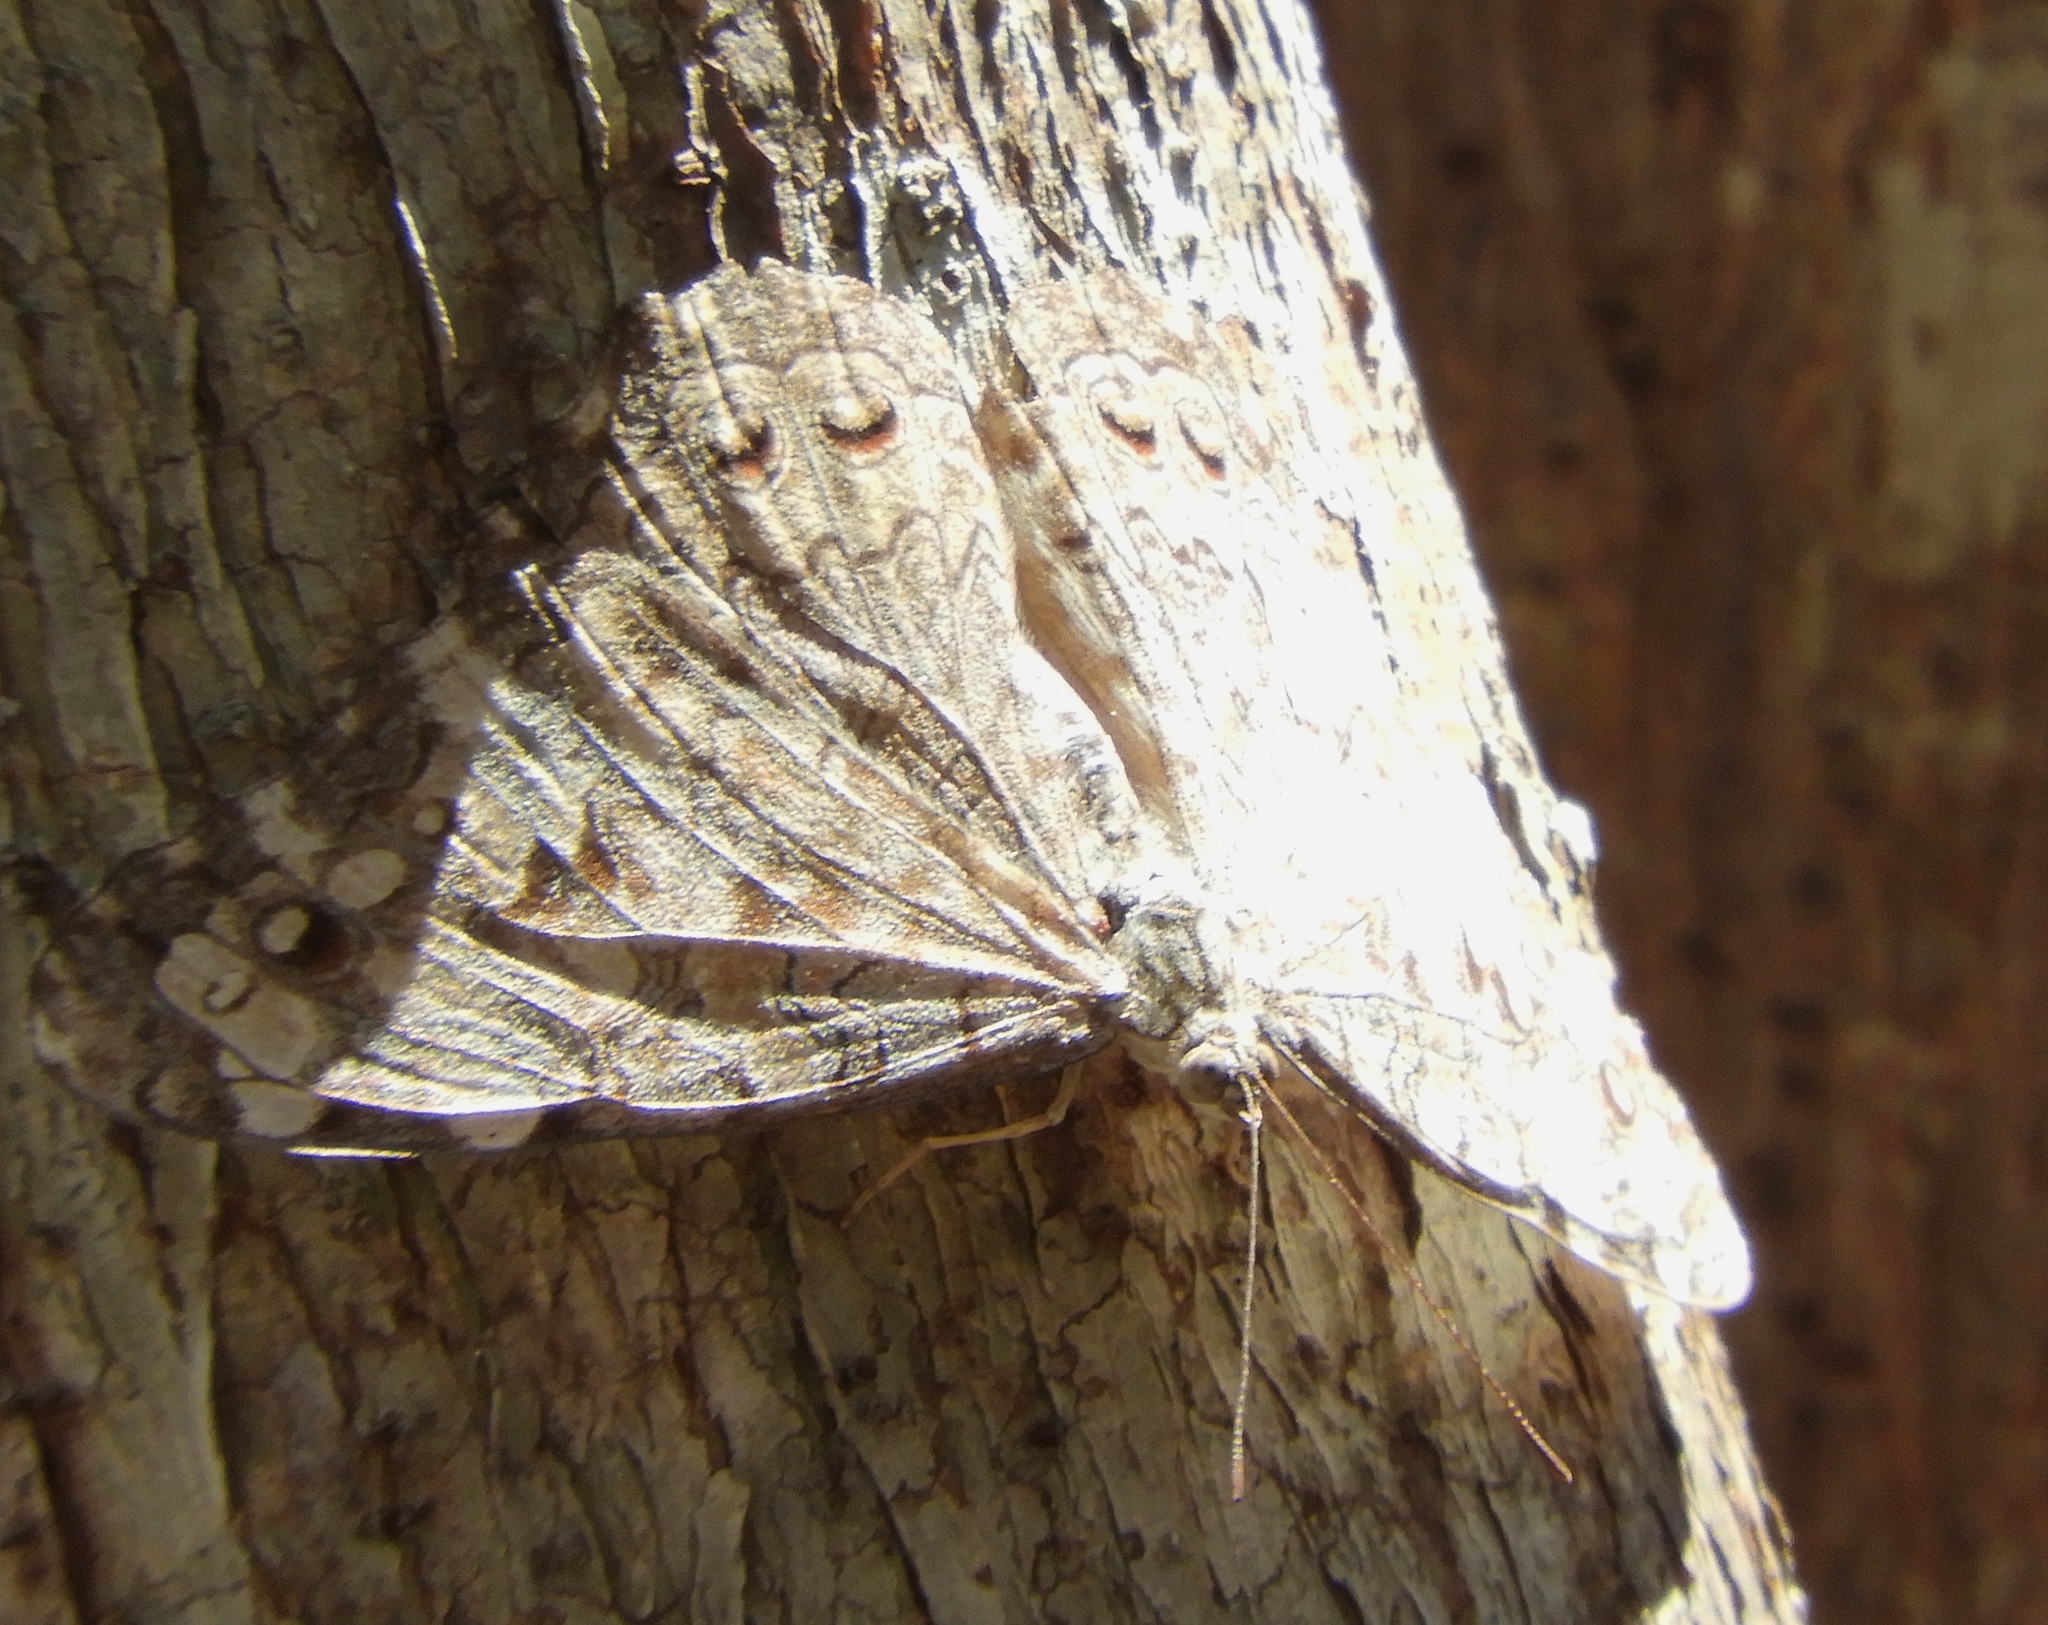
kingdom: Animalia
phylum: Arthropoda
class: Insecta
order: Lepidoptera
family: Nymphalidae
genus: Hamadryas
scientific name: Hamadryas februa
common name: Gray cracker
